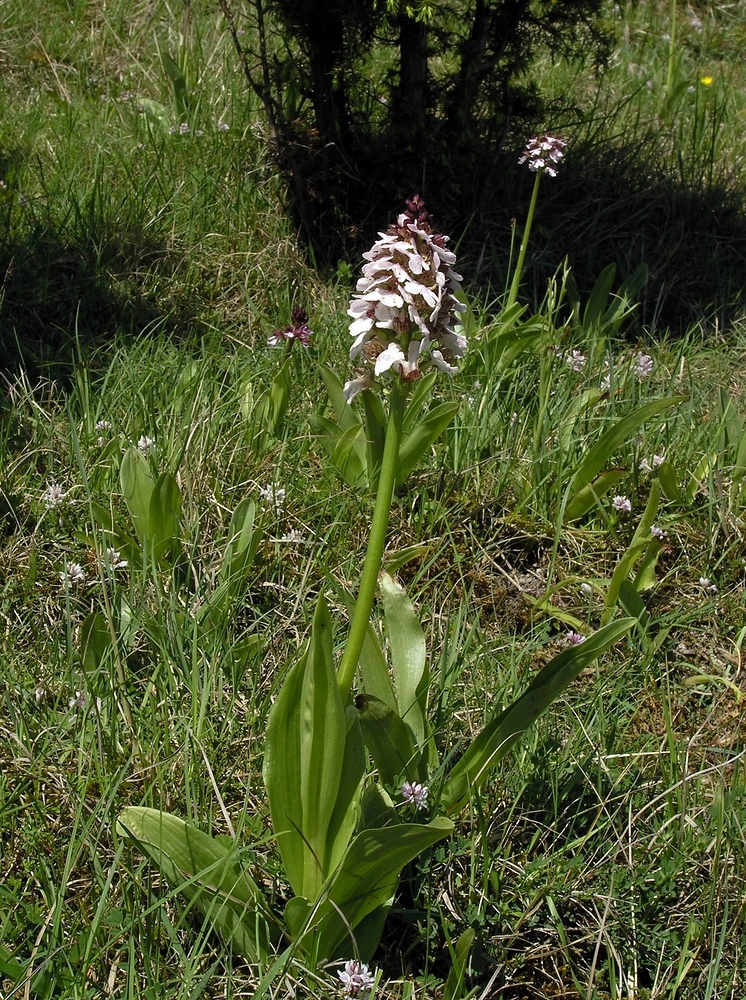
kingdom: Plantae
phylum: Tracheophyta
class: Liliopsida
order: Asparagales
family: Orchidaceae
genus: Orchis
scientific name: Orchis purpurea
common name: Lady orchid
